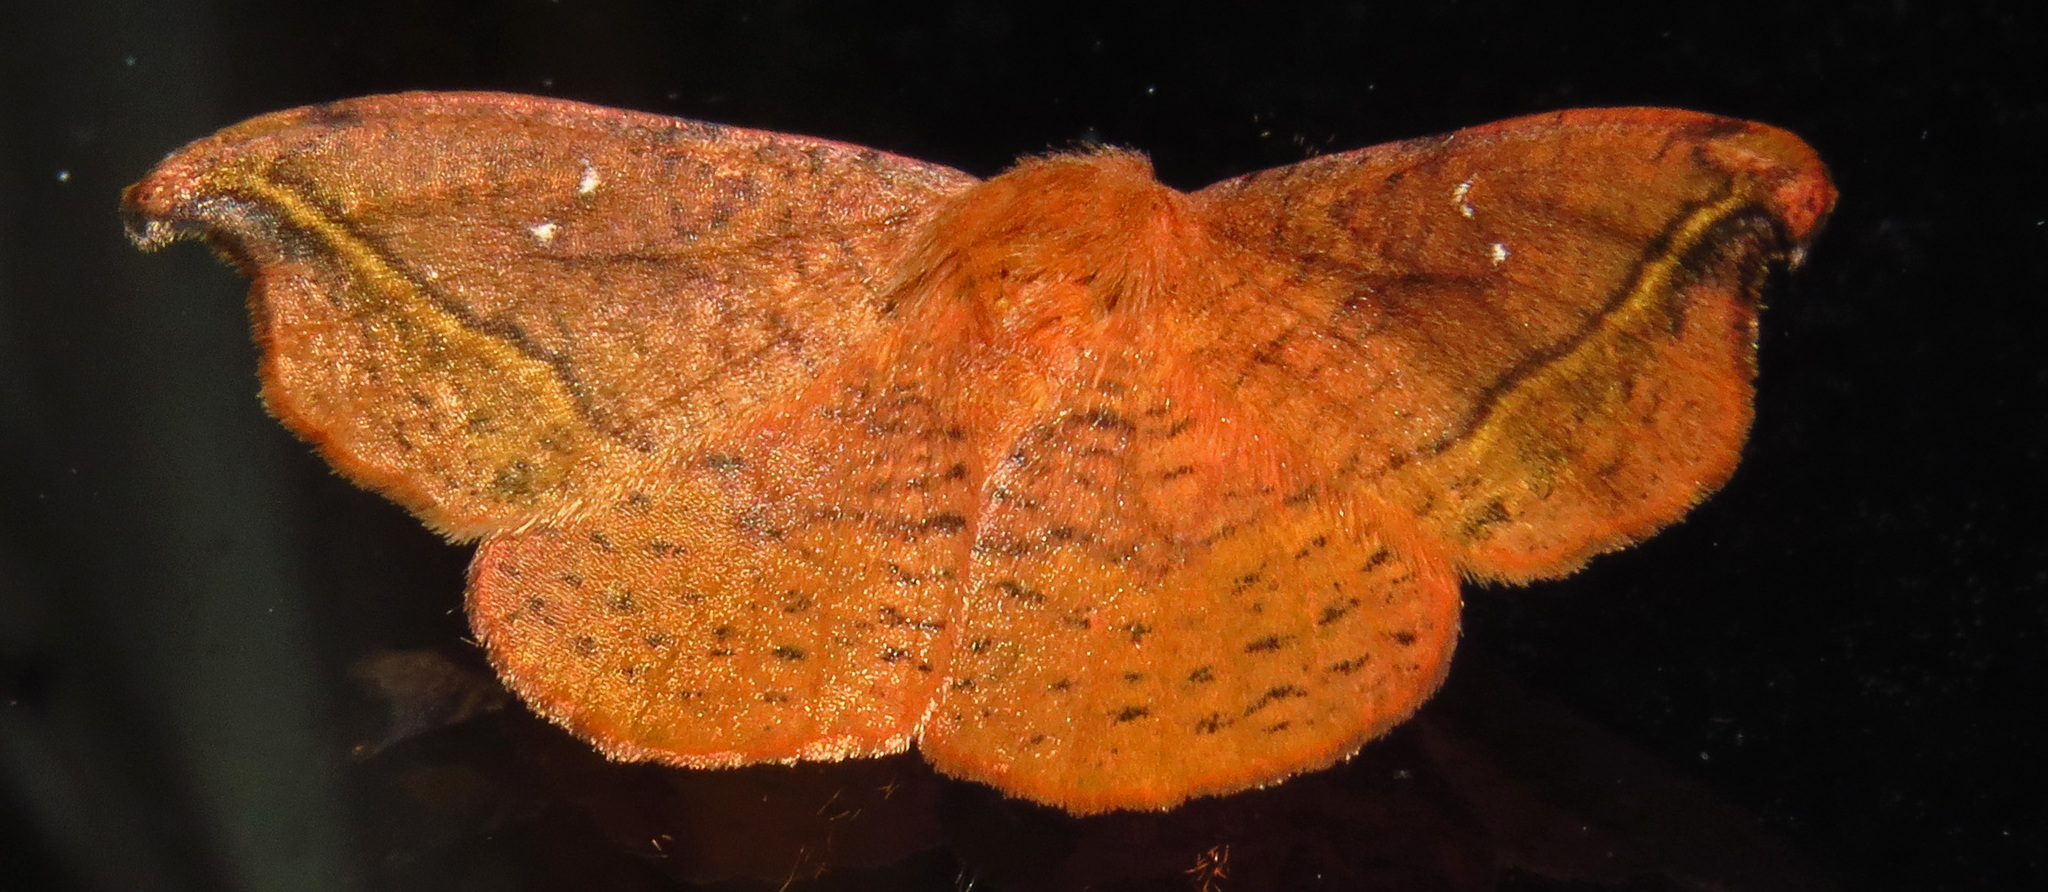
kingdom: Animalia
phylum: Arthropoda
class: Insecta
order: Lepidoptera
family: Drepanidae
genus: Oreta
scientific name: Oreta rosea
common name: Rose hooktip
